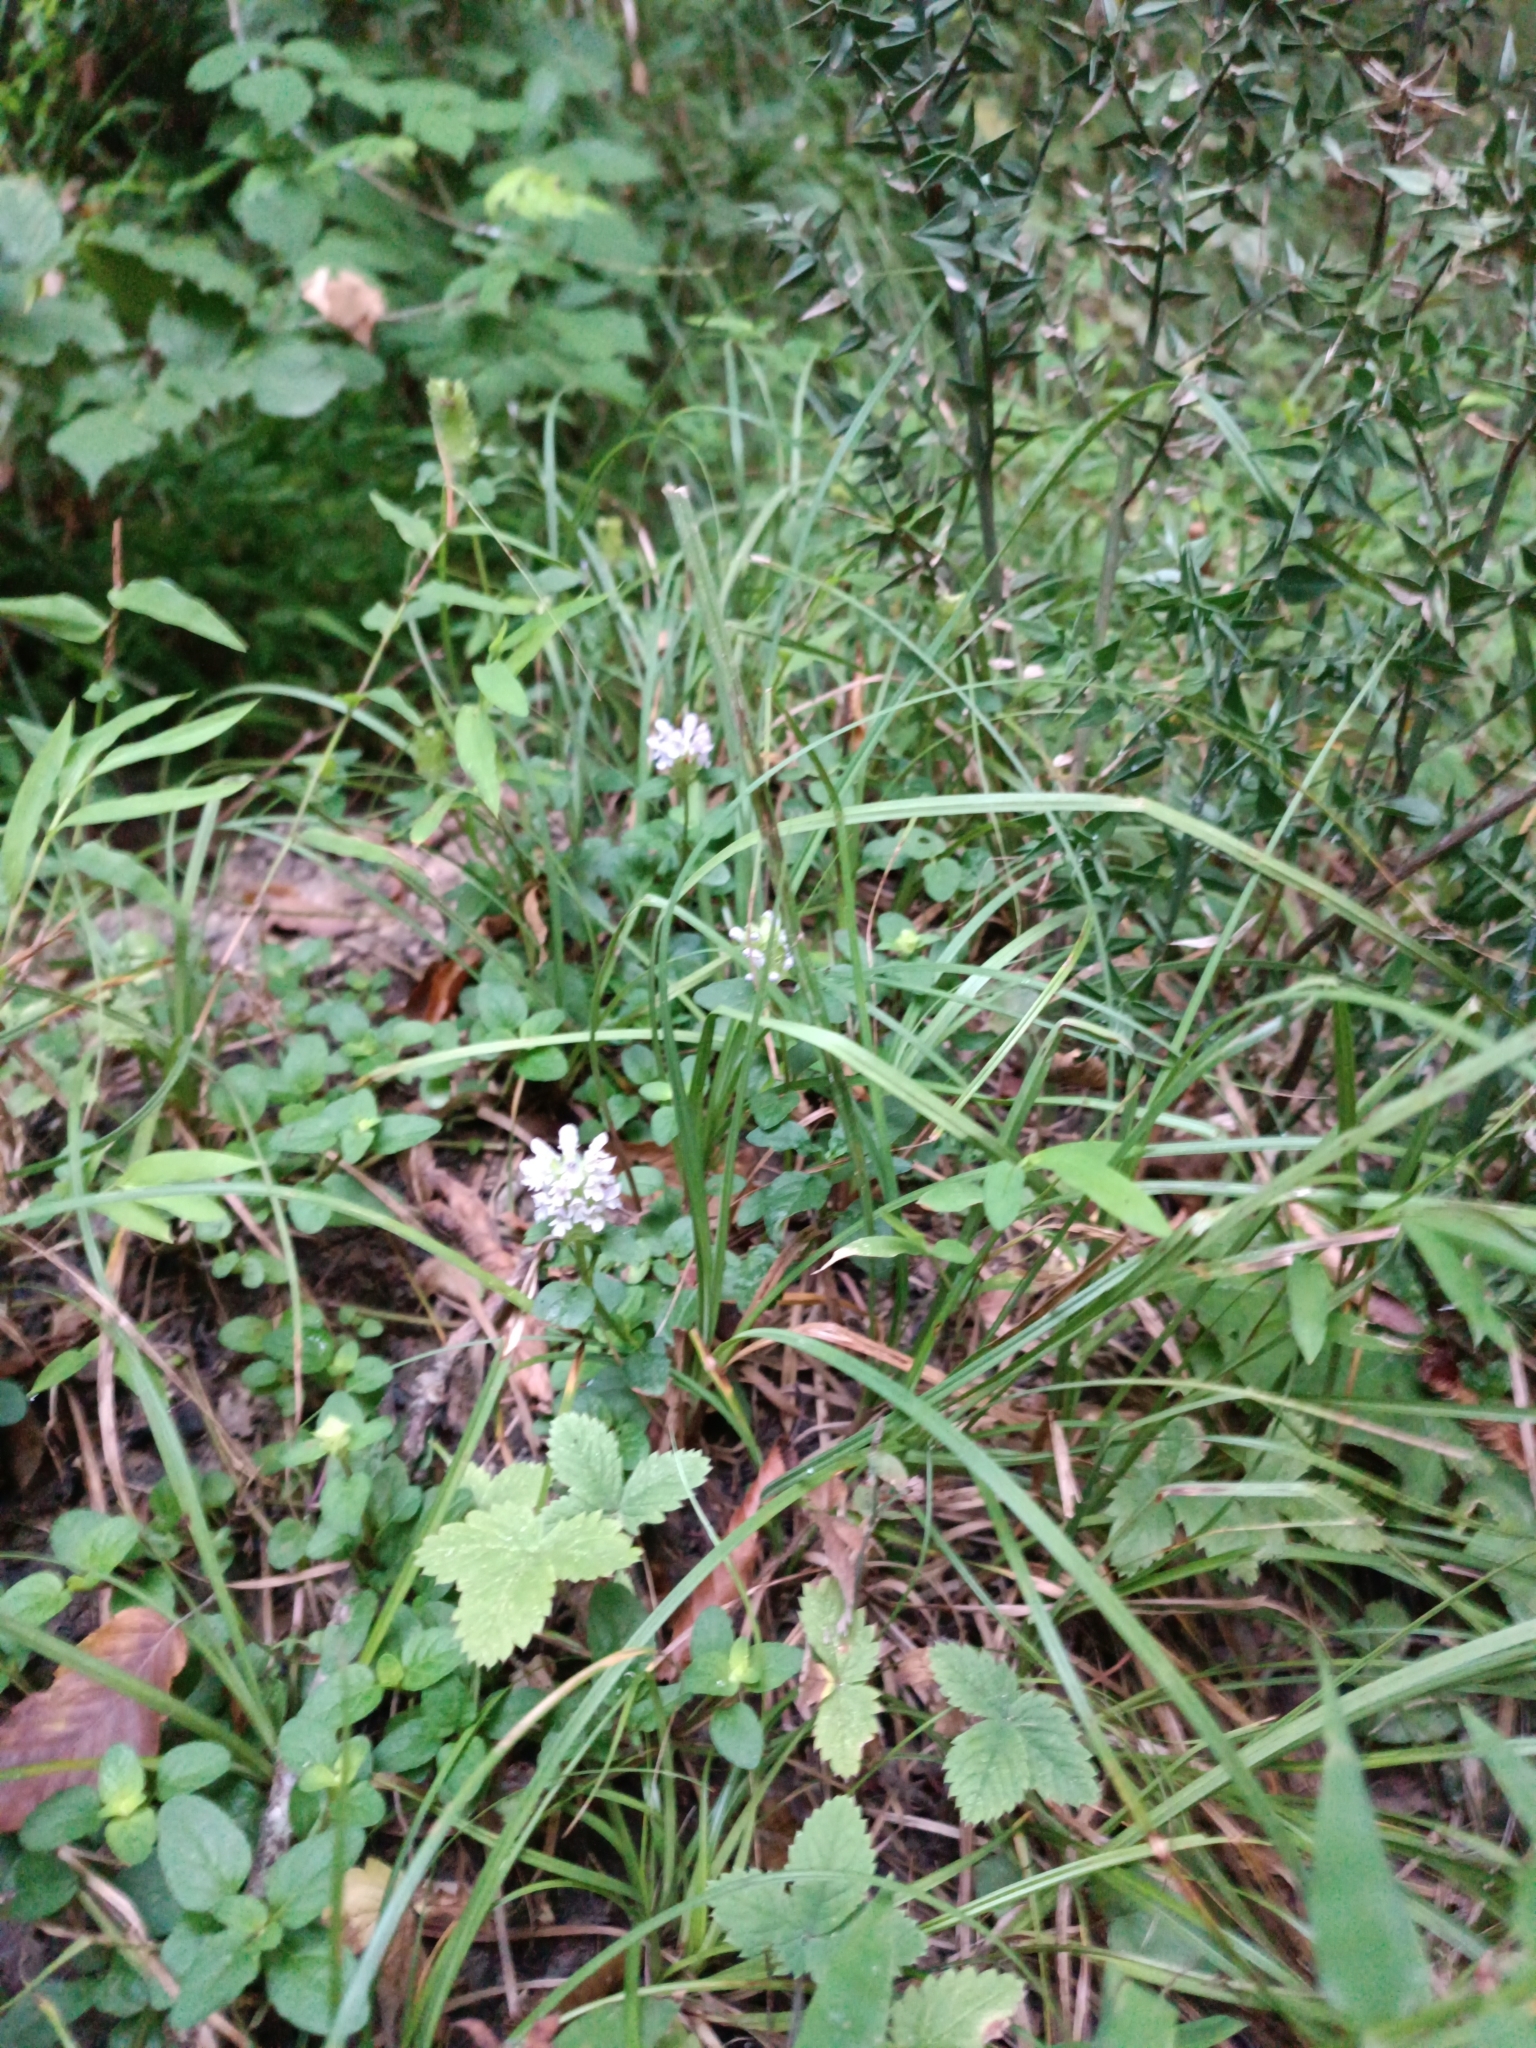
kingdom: Plantae
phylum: Tracheophyta
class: Magnoliopsida
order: Lamiales
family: Lamiaceae
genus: Prunella
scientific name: Prunella vulgaris
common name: Heal-all
